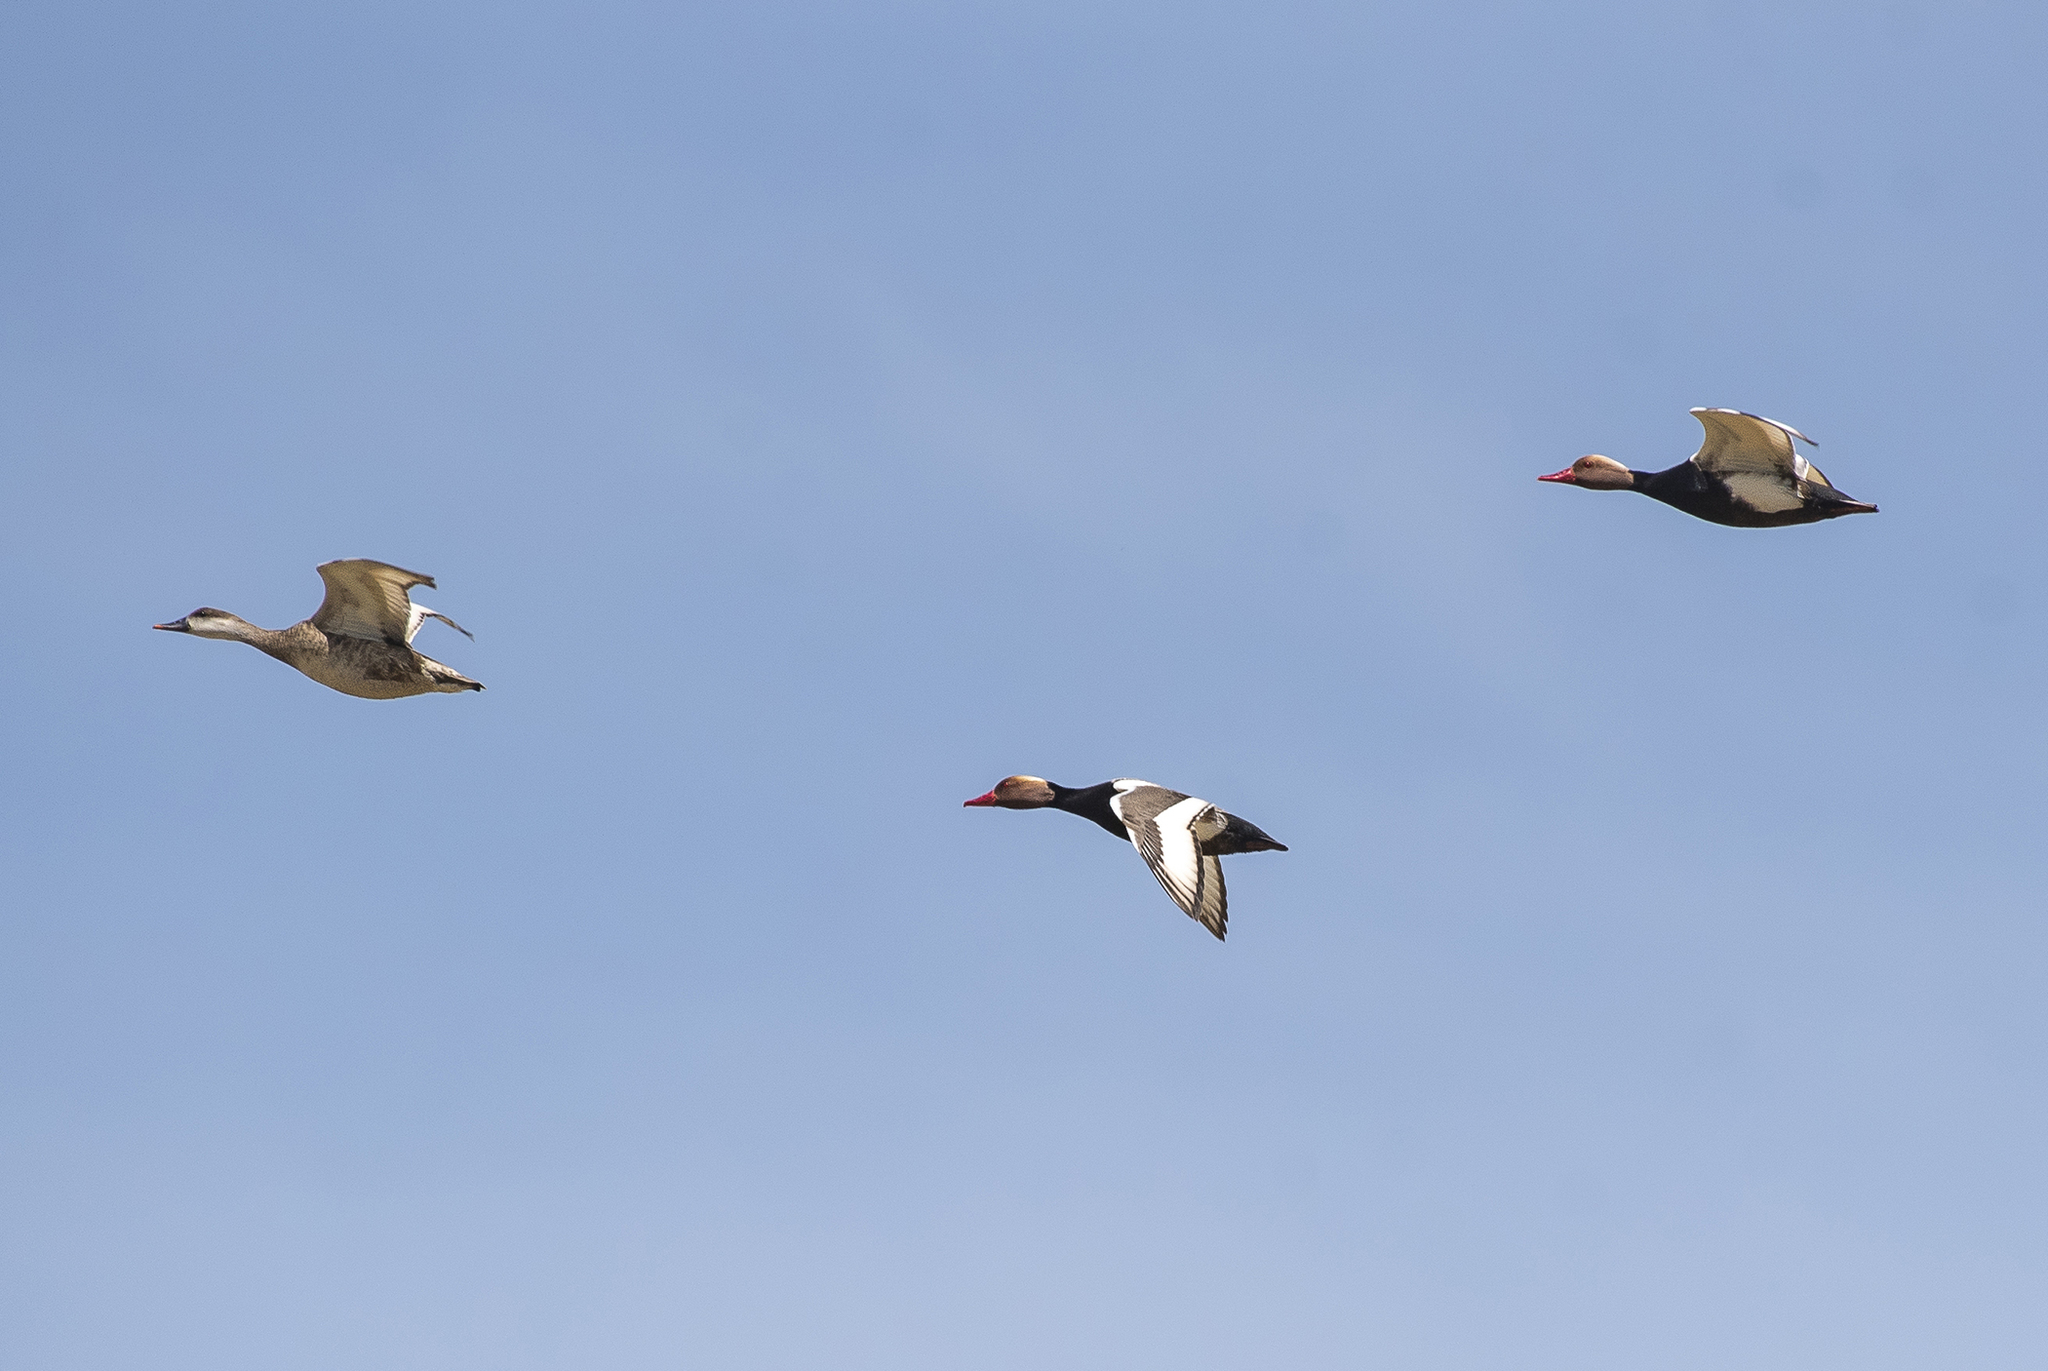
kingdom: Animalia
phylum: Chordata
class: Aves
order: Anseriformes
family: Anatidae
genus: Netta
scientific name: Netta rufina
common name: Red-crested pochard
